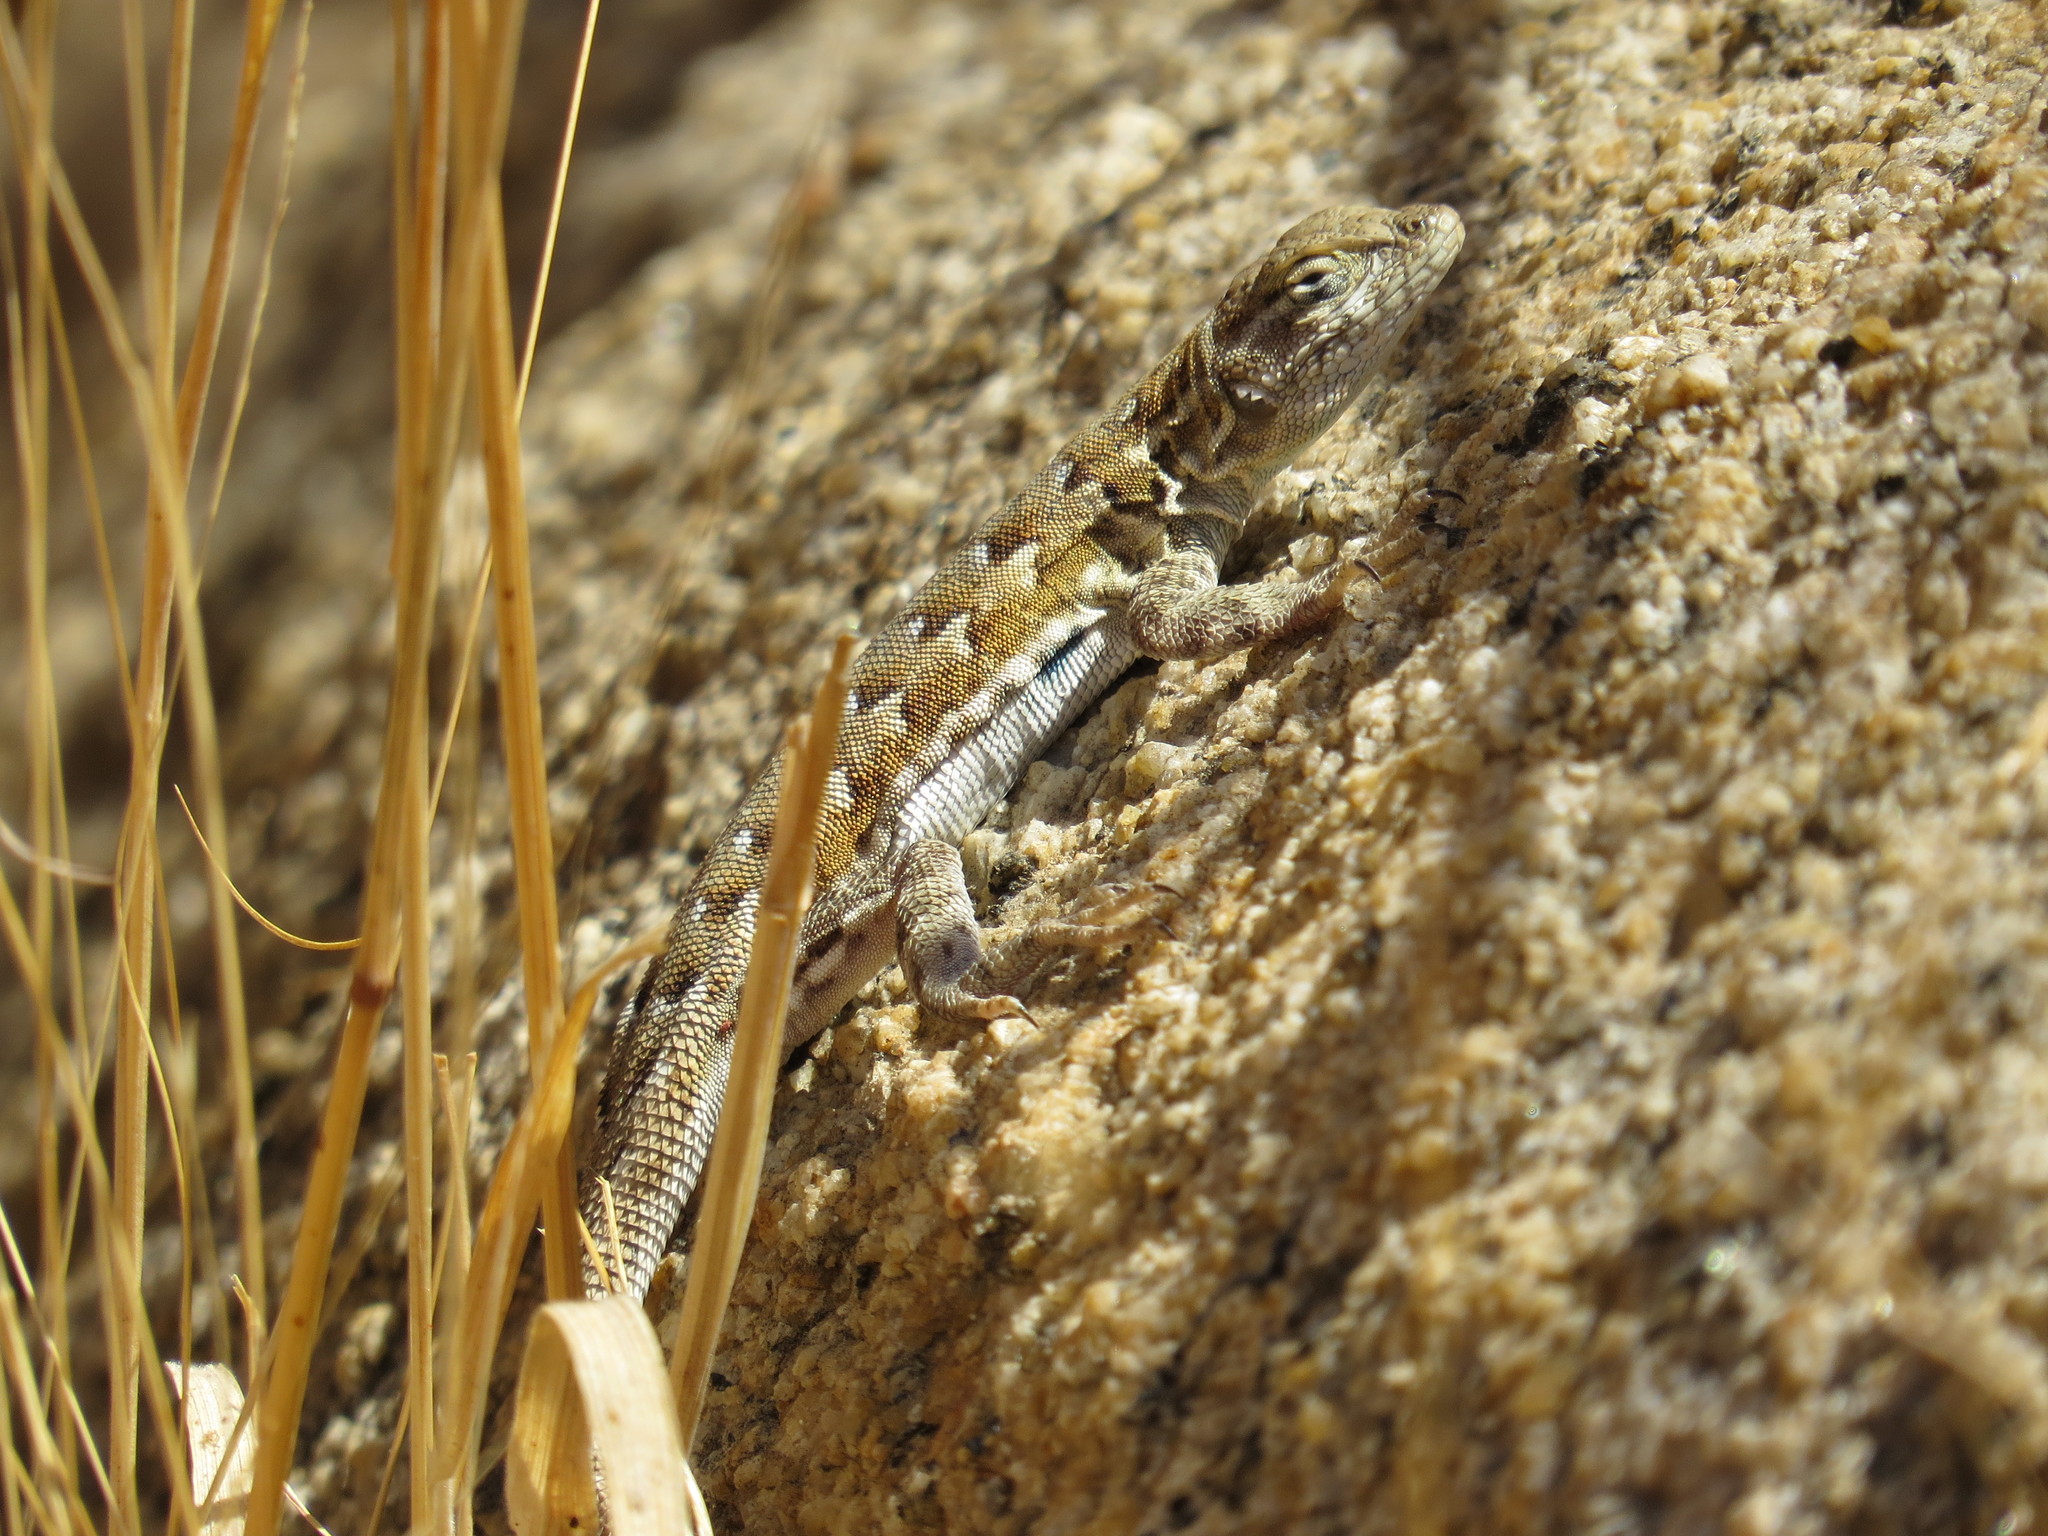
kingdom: Animalia
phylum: Chordata
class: Squamata
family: Phrynosomatidae
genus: Uta
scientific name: Uta stansburiana
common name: Side-blotched lizard
